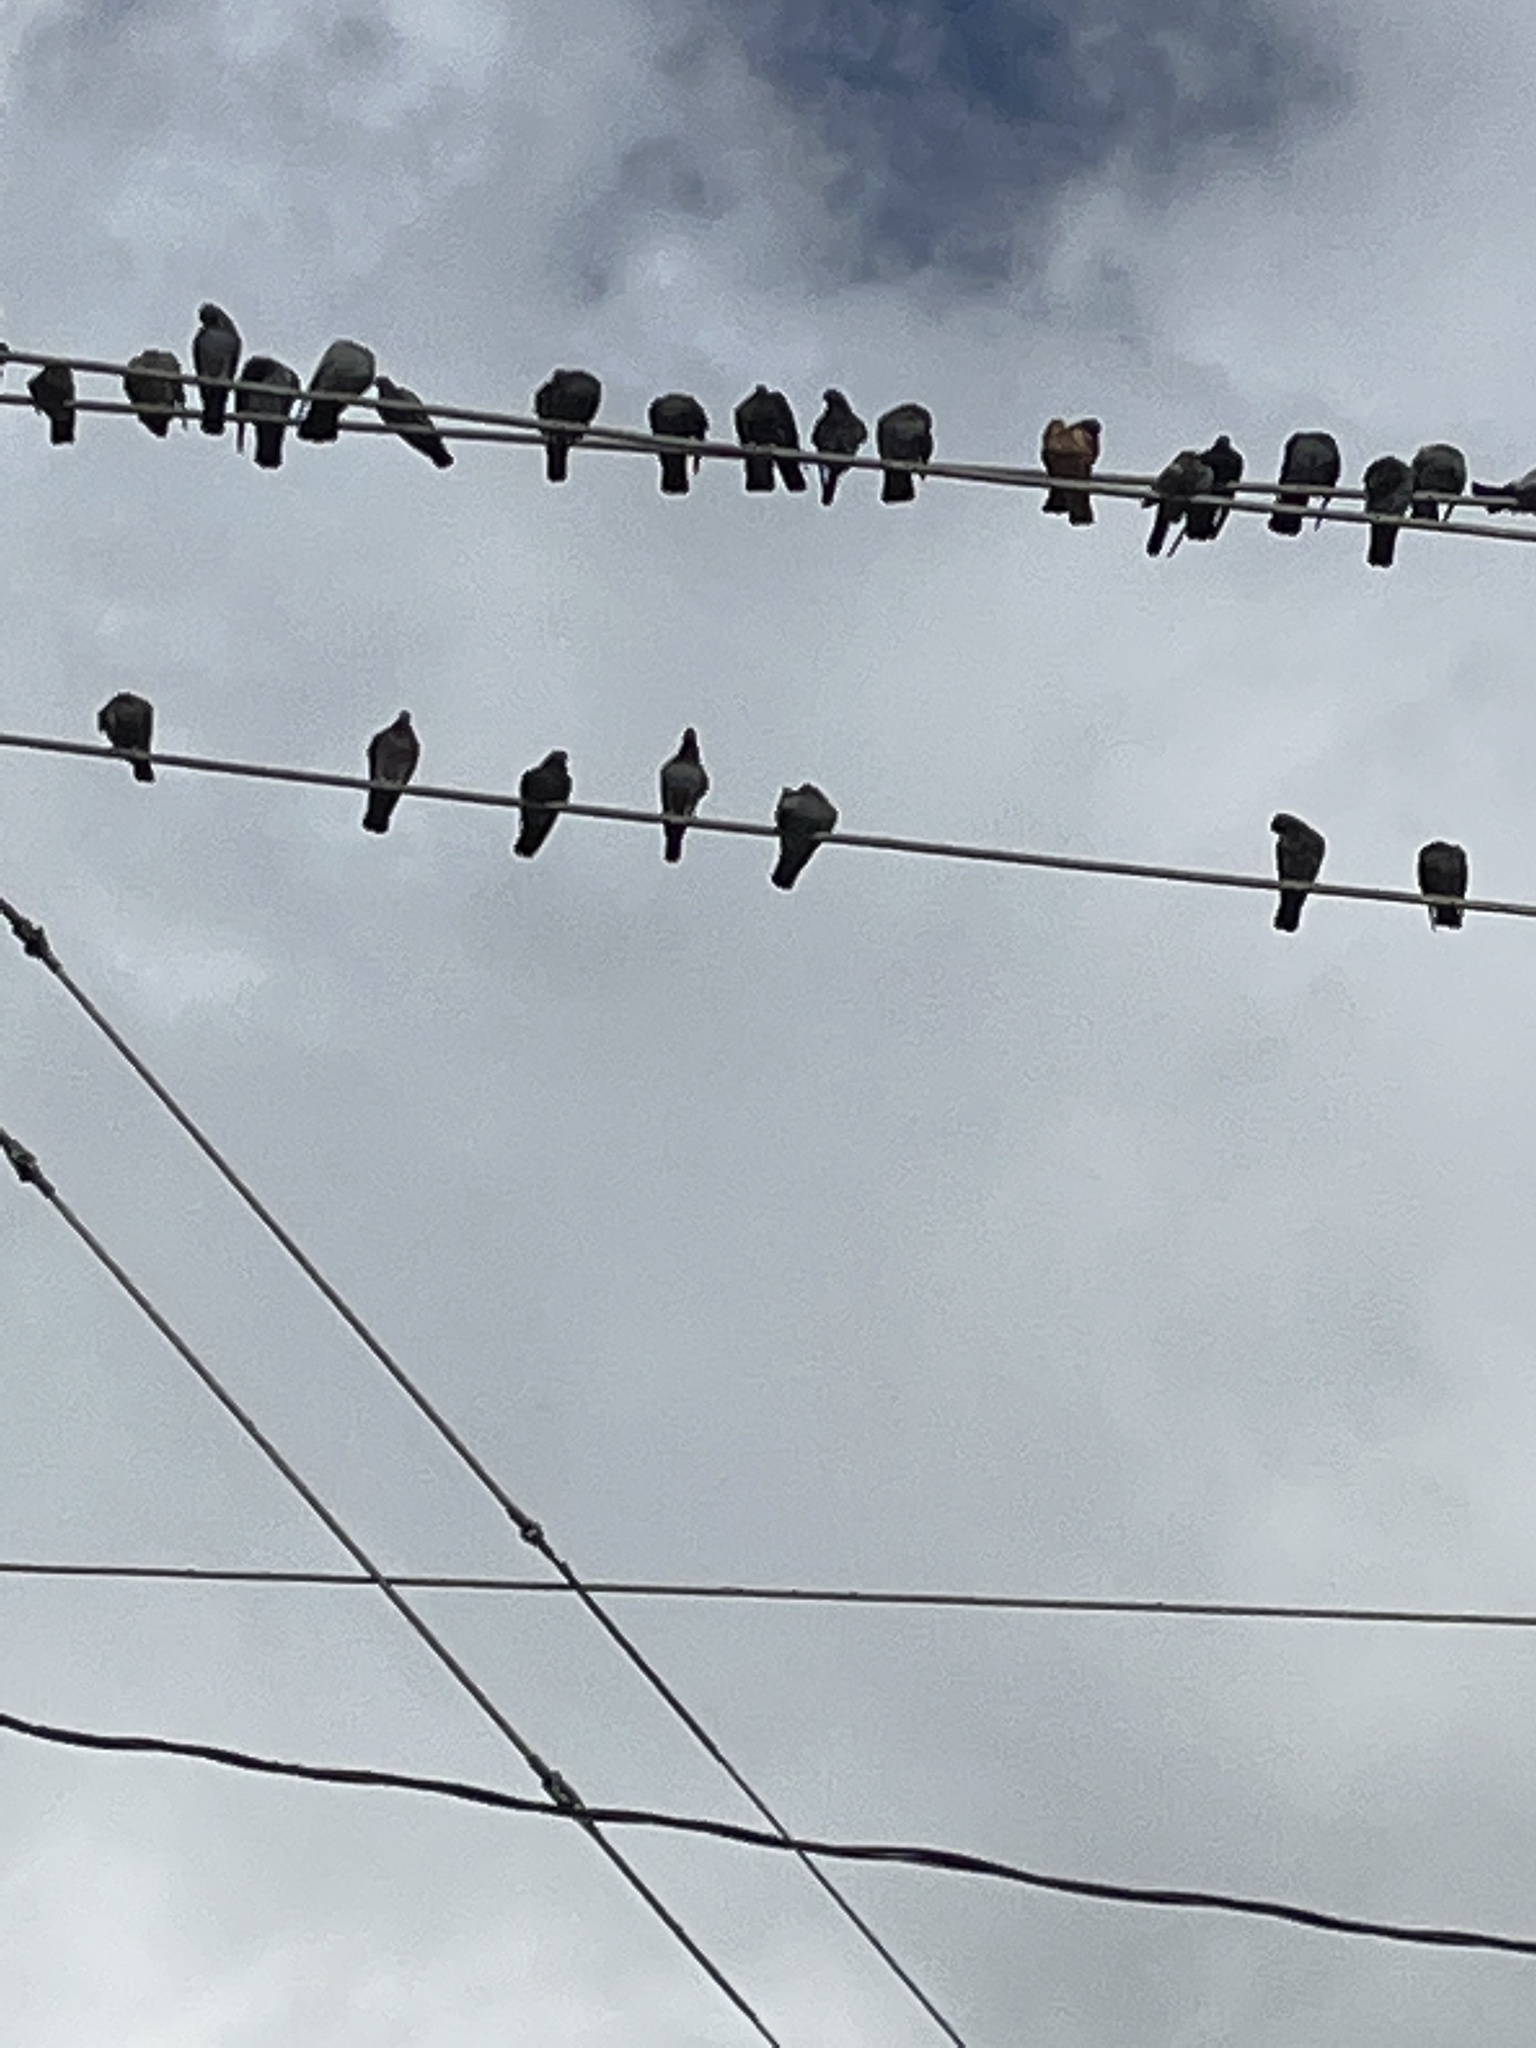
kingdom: Animalia
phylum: Chordata
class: Aves
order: Columbiformes
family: Columbidae
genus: Columba
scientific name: Columba livia
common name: Rock pigeon
